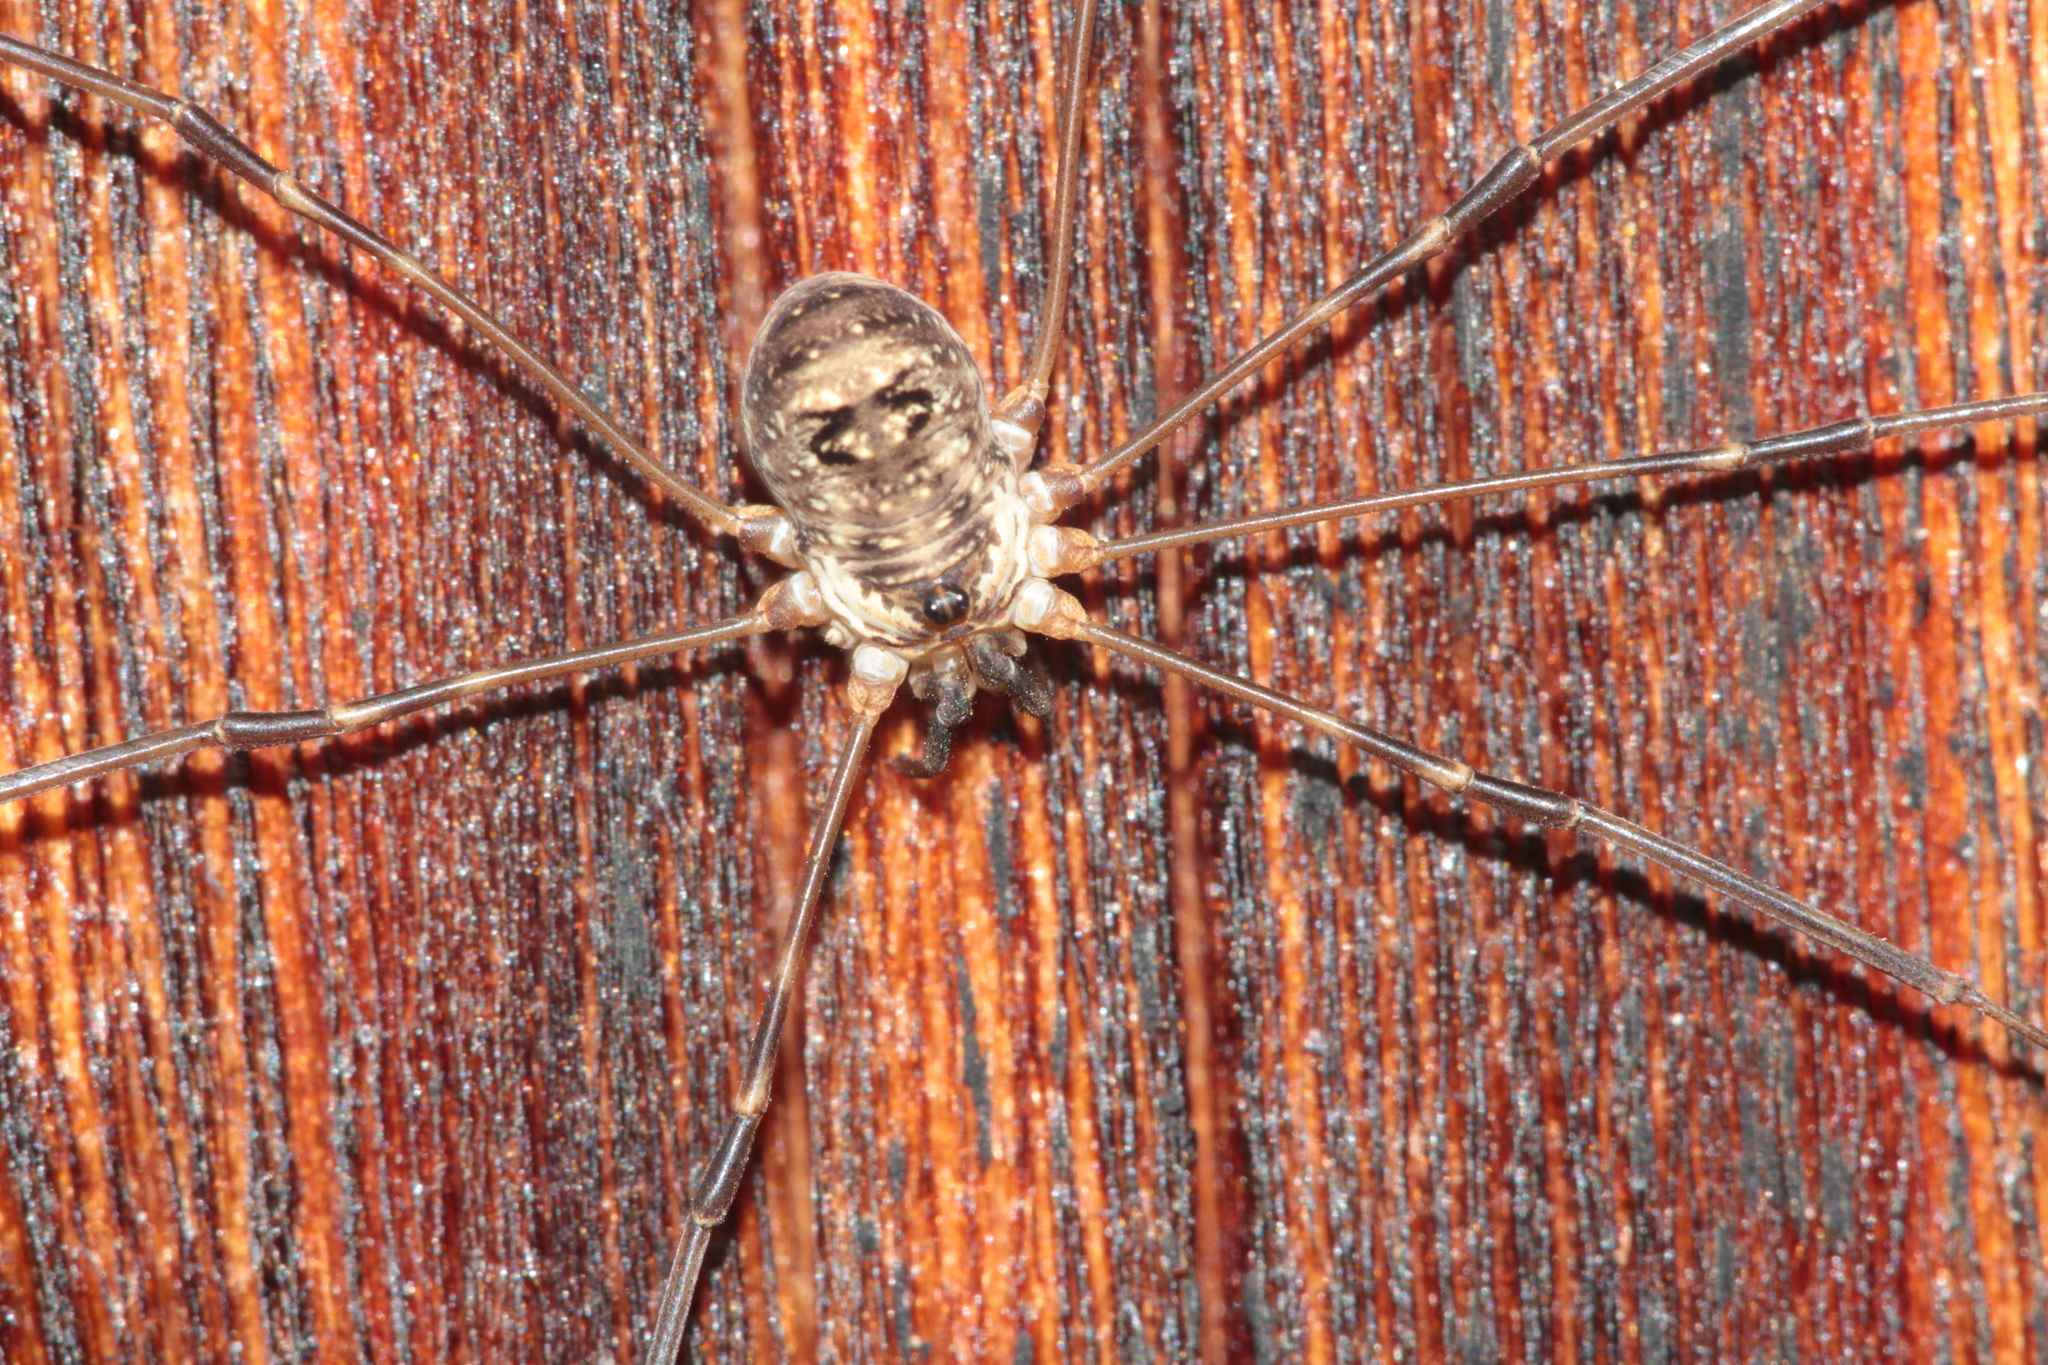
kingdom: Animalia
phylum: Arthropoda
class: Arachnida
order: Opiliones
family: Phalangiidae
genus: Amilenus
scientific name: Amilenus aurantiacus
